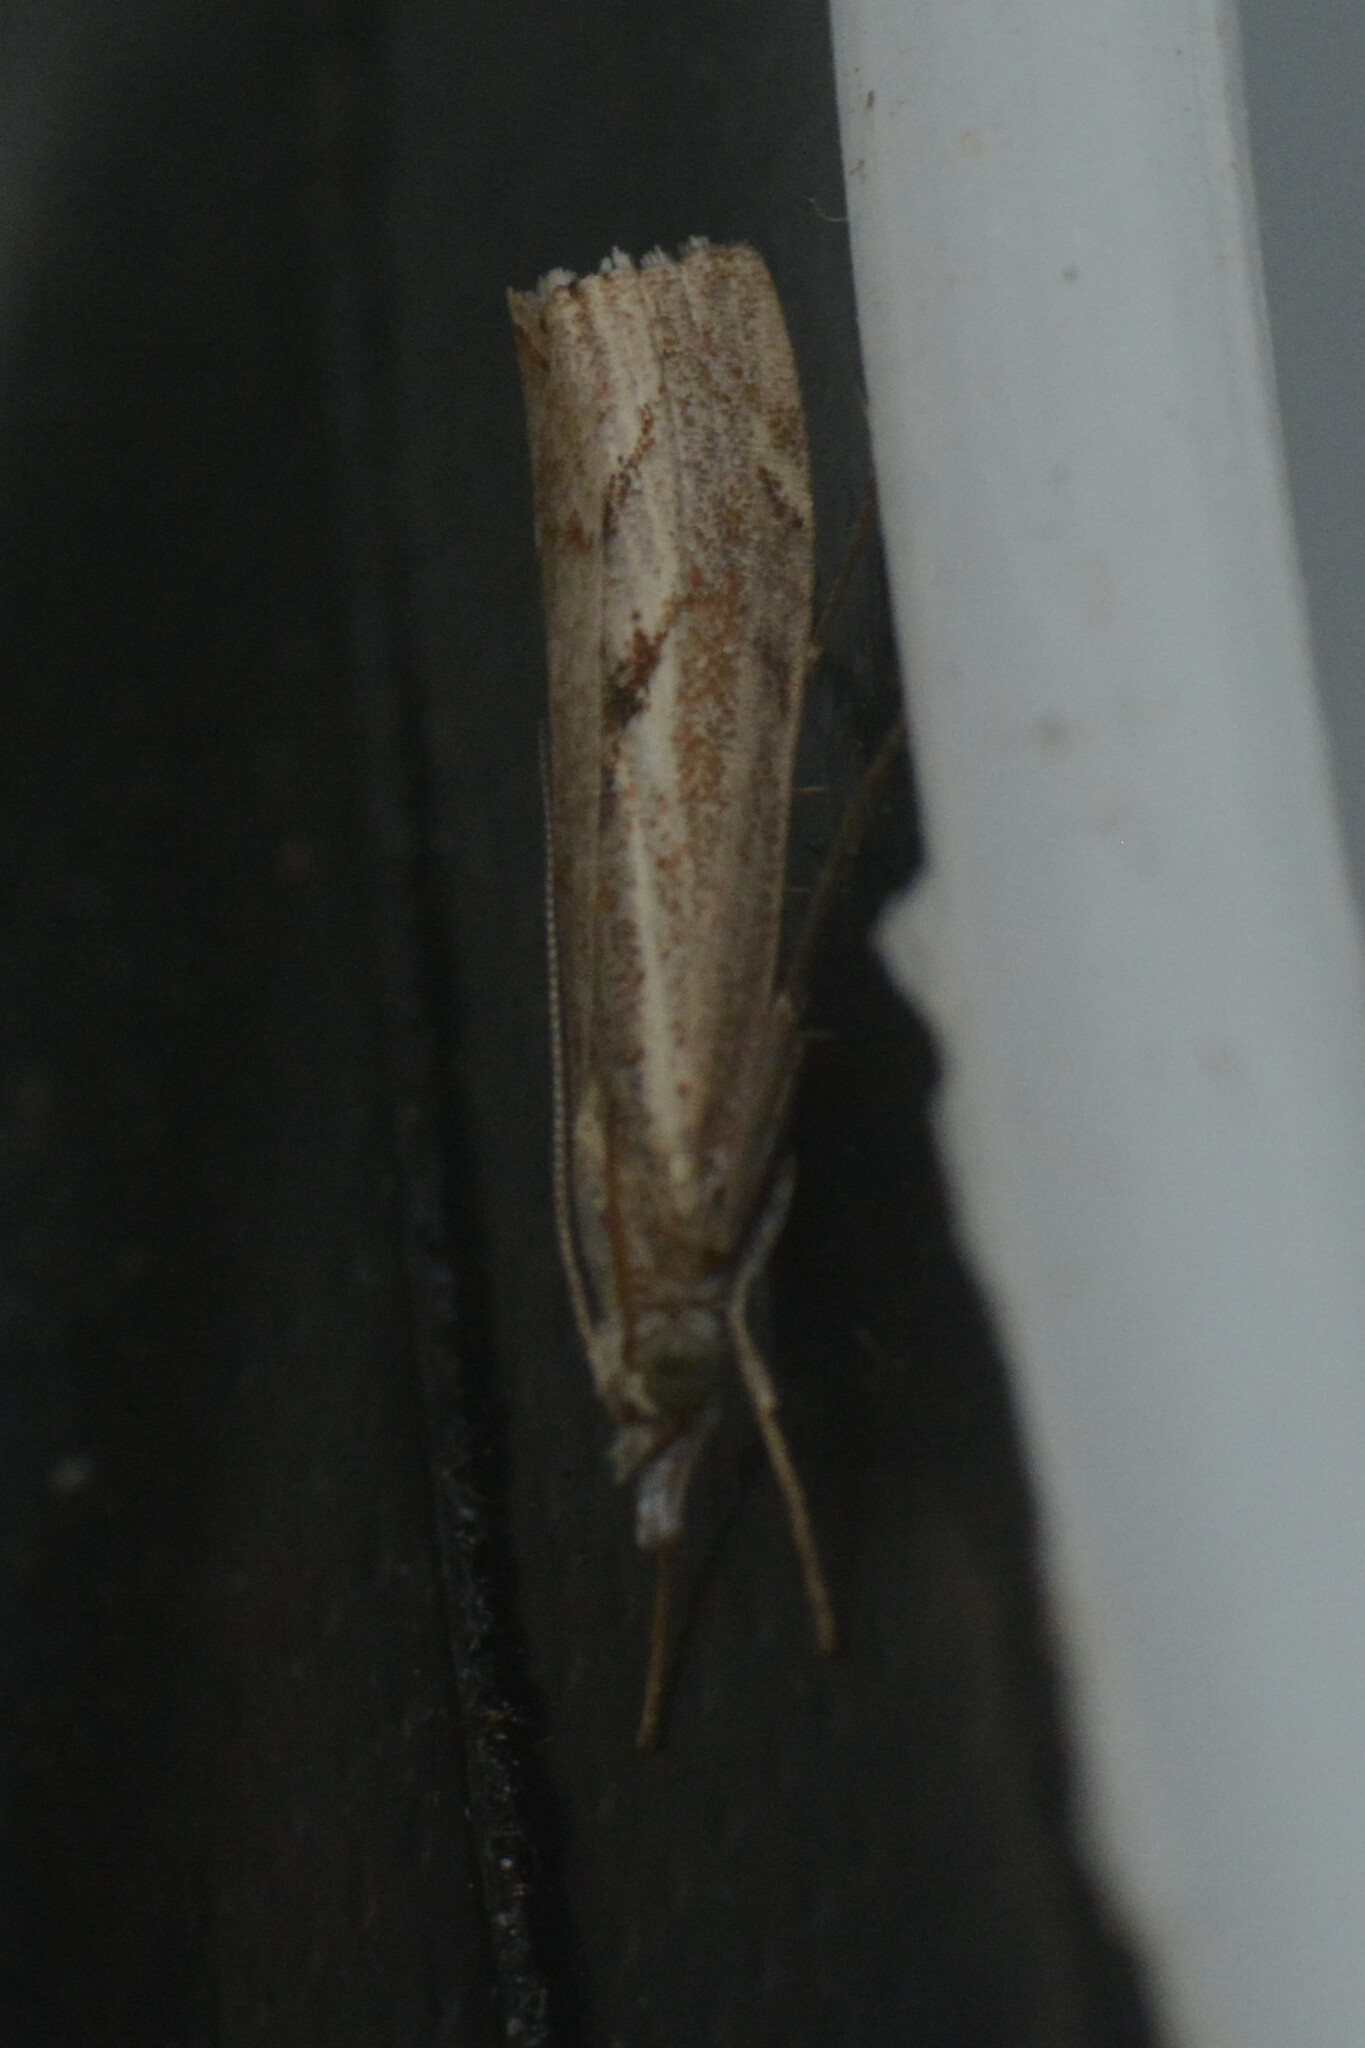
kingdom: Animalia
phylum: Arthropoda
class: Insecta
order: Lepidoptera
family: Crambidae
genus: Agriphila
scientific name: Agriphila geniculea
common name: Elbow-stripe grass-veneer
